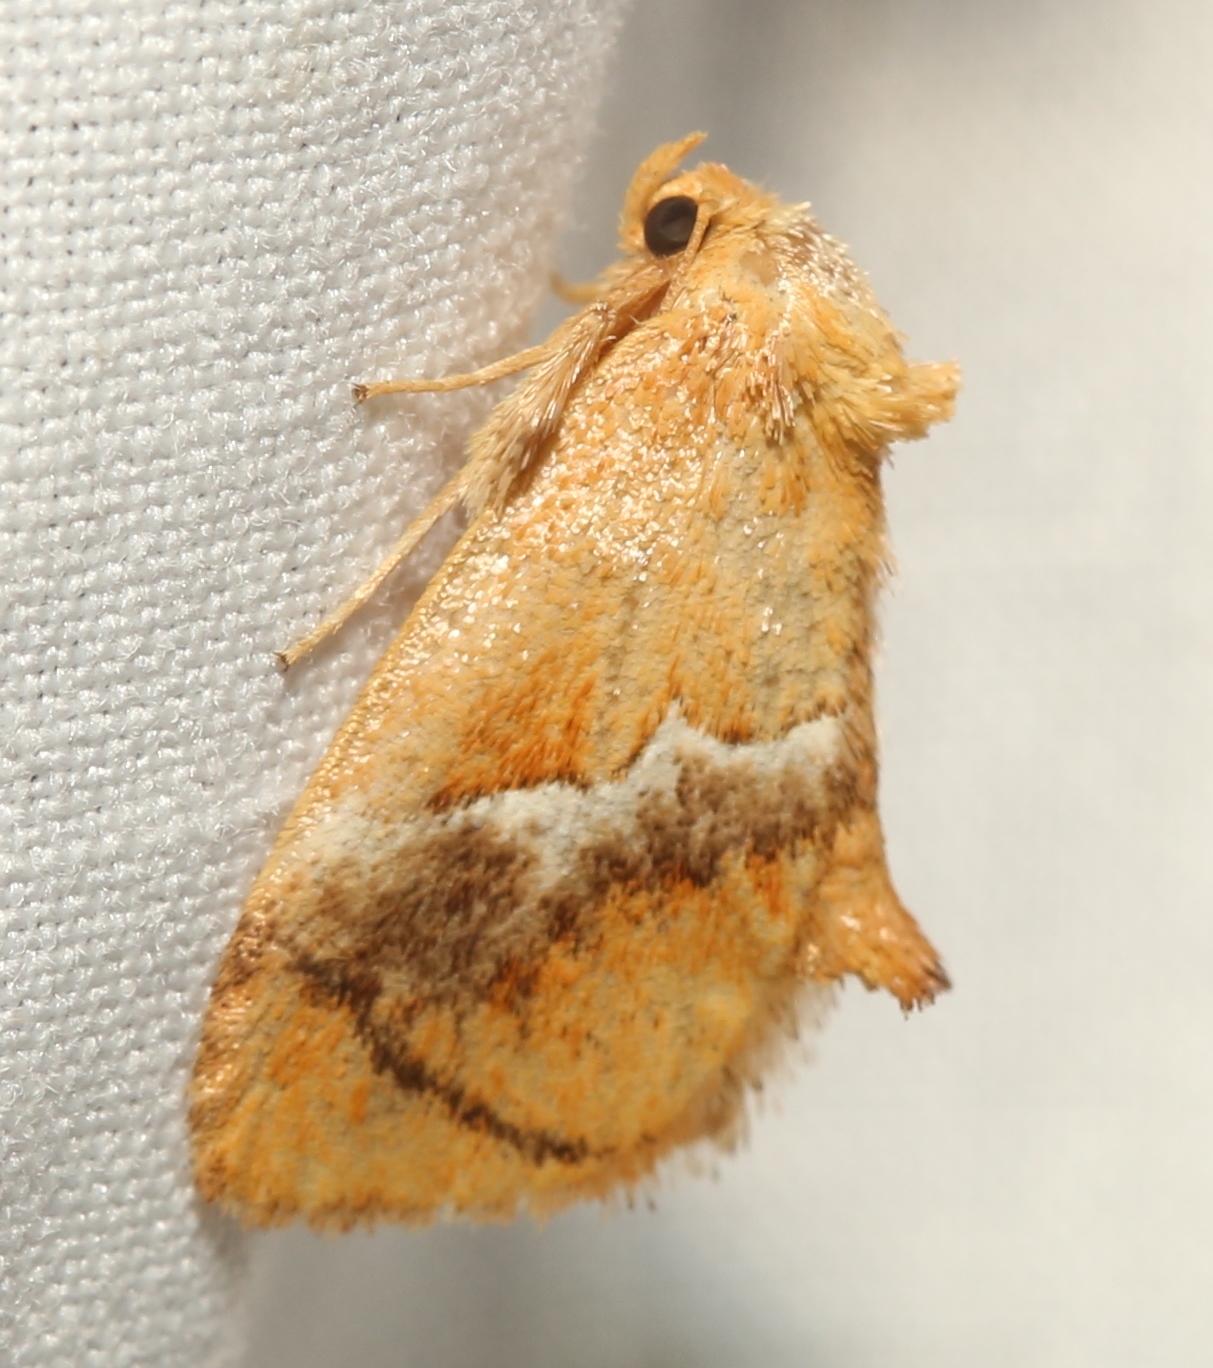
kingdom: Animalia
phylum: Arthropoda
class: Insecta
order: Lepidoptera
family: Limacodidae
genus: Lithacodes
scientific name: Lithacodes fasciola
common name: Yellow-shouldered slug moth
